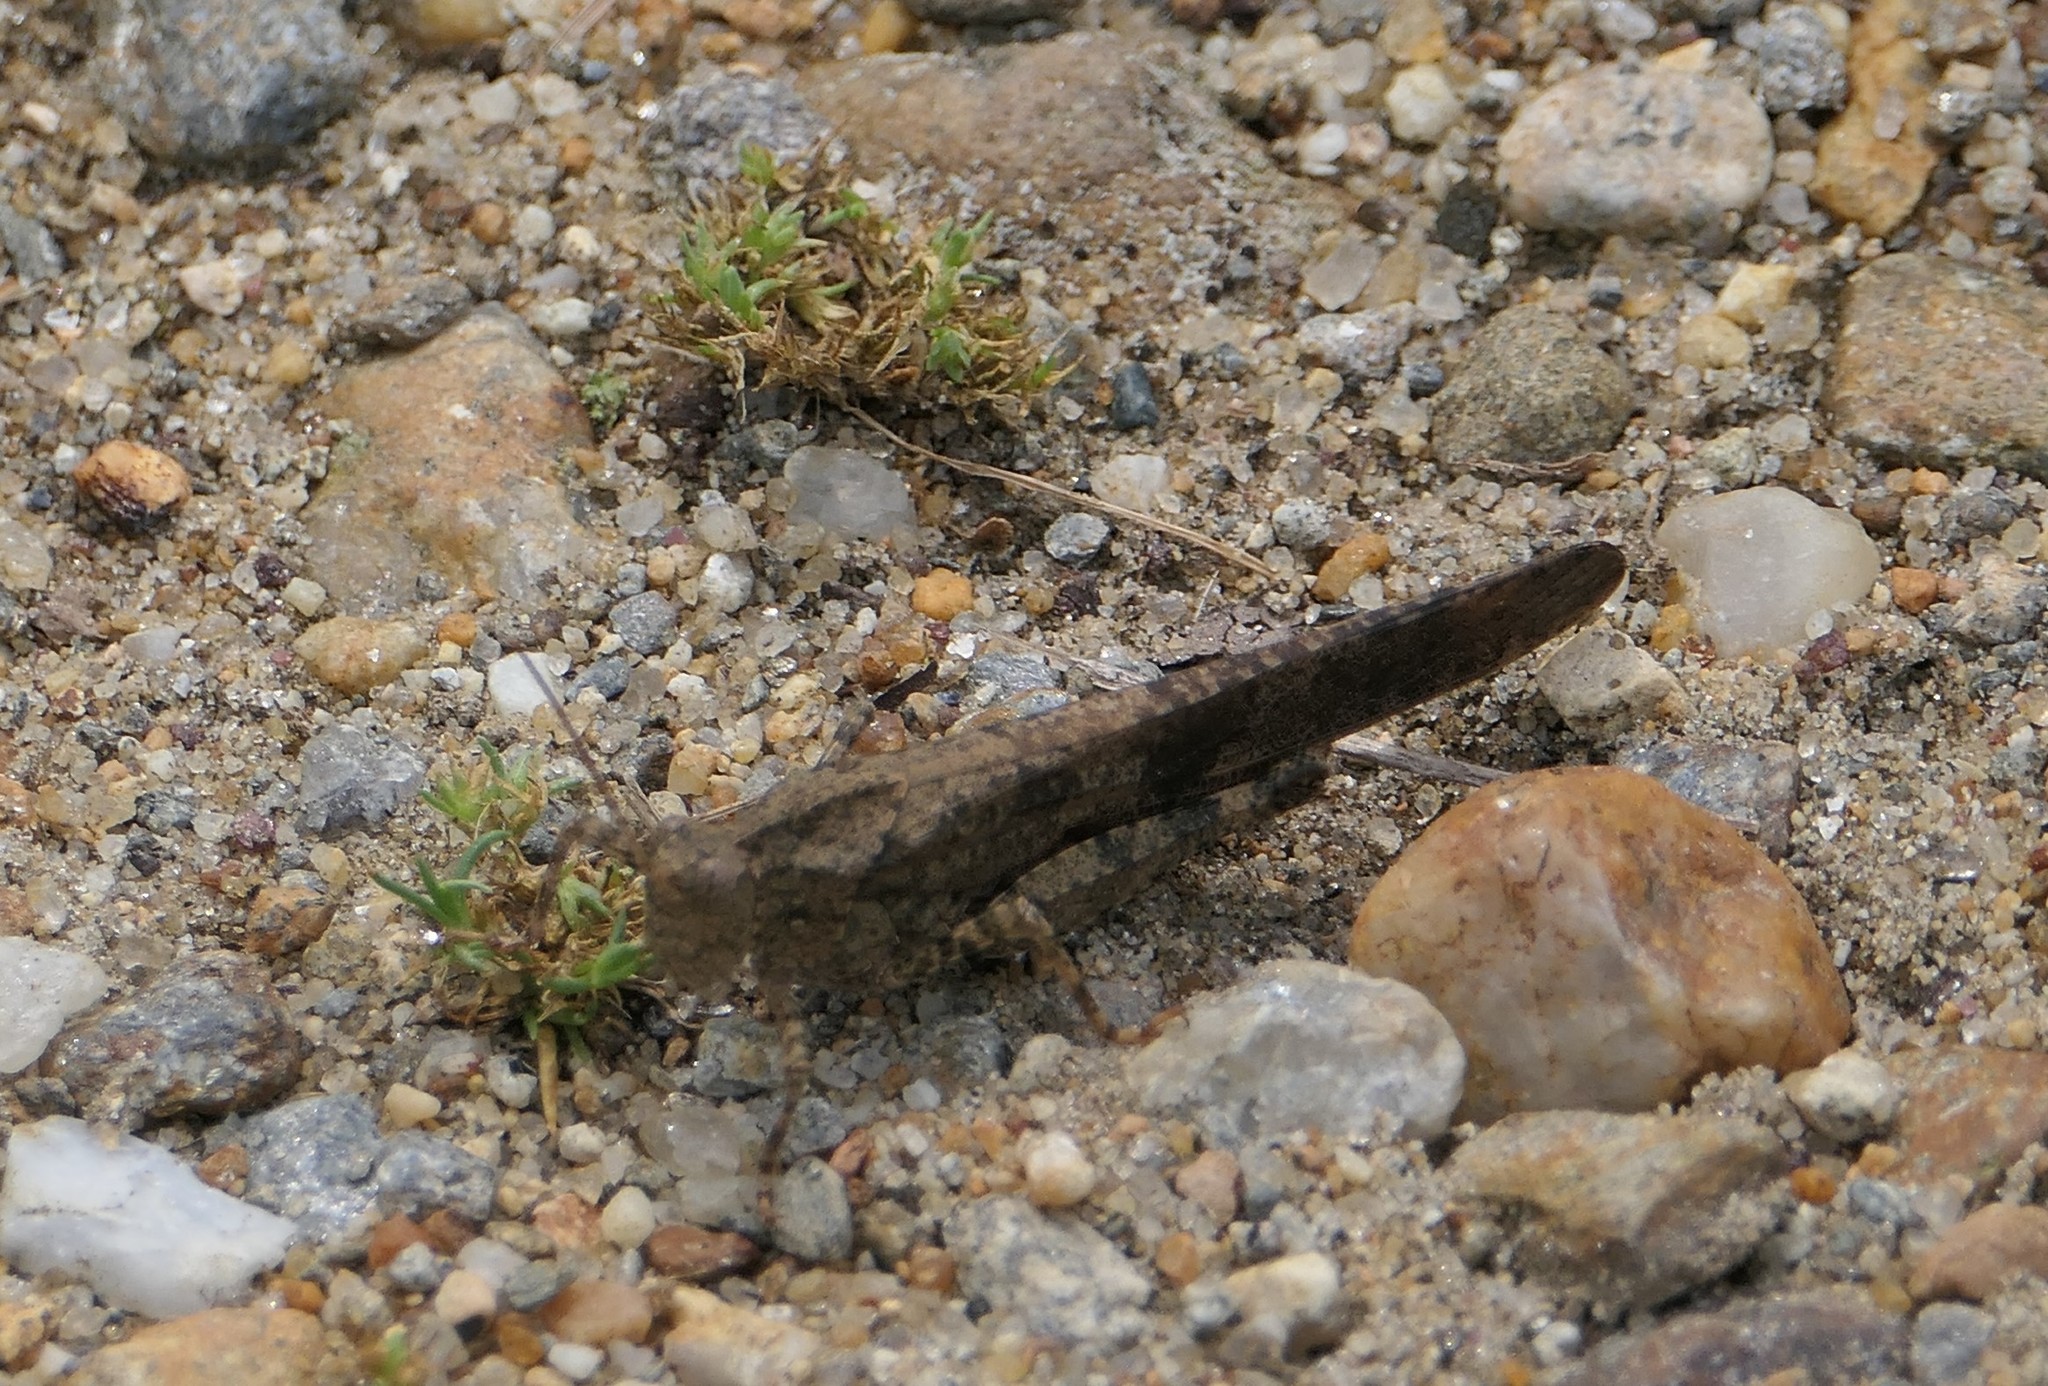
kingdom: Animalia
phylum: Arthropoda
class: Insecta
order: Orthoptera
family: Acrididae
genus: Dissosteira
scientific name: Dissosteira carolina
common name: Carolina grasshopper
